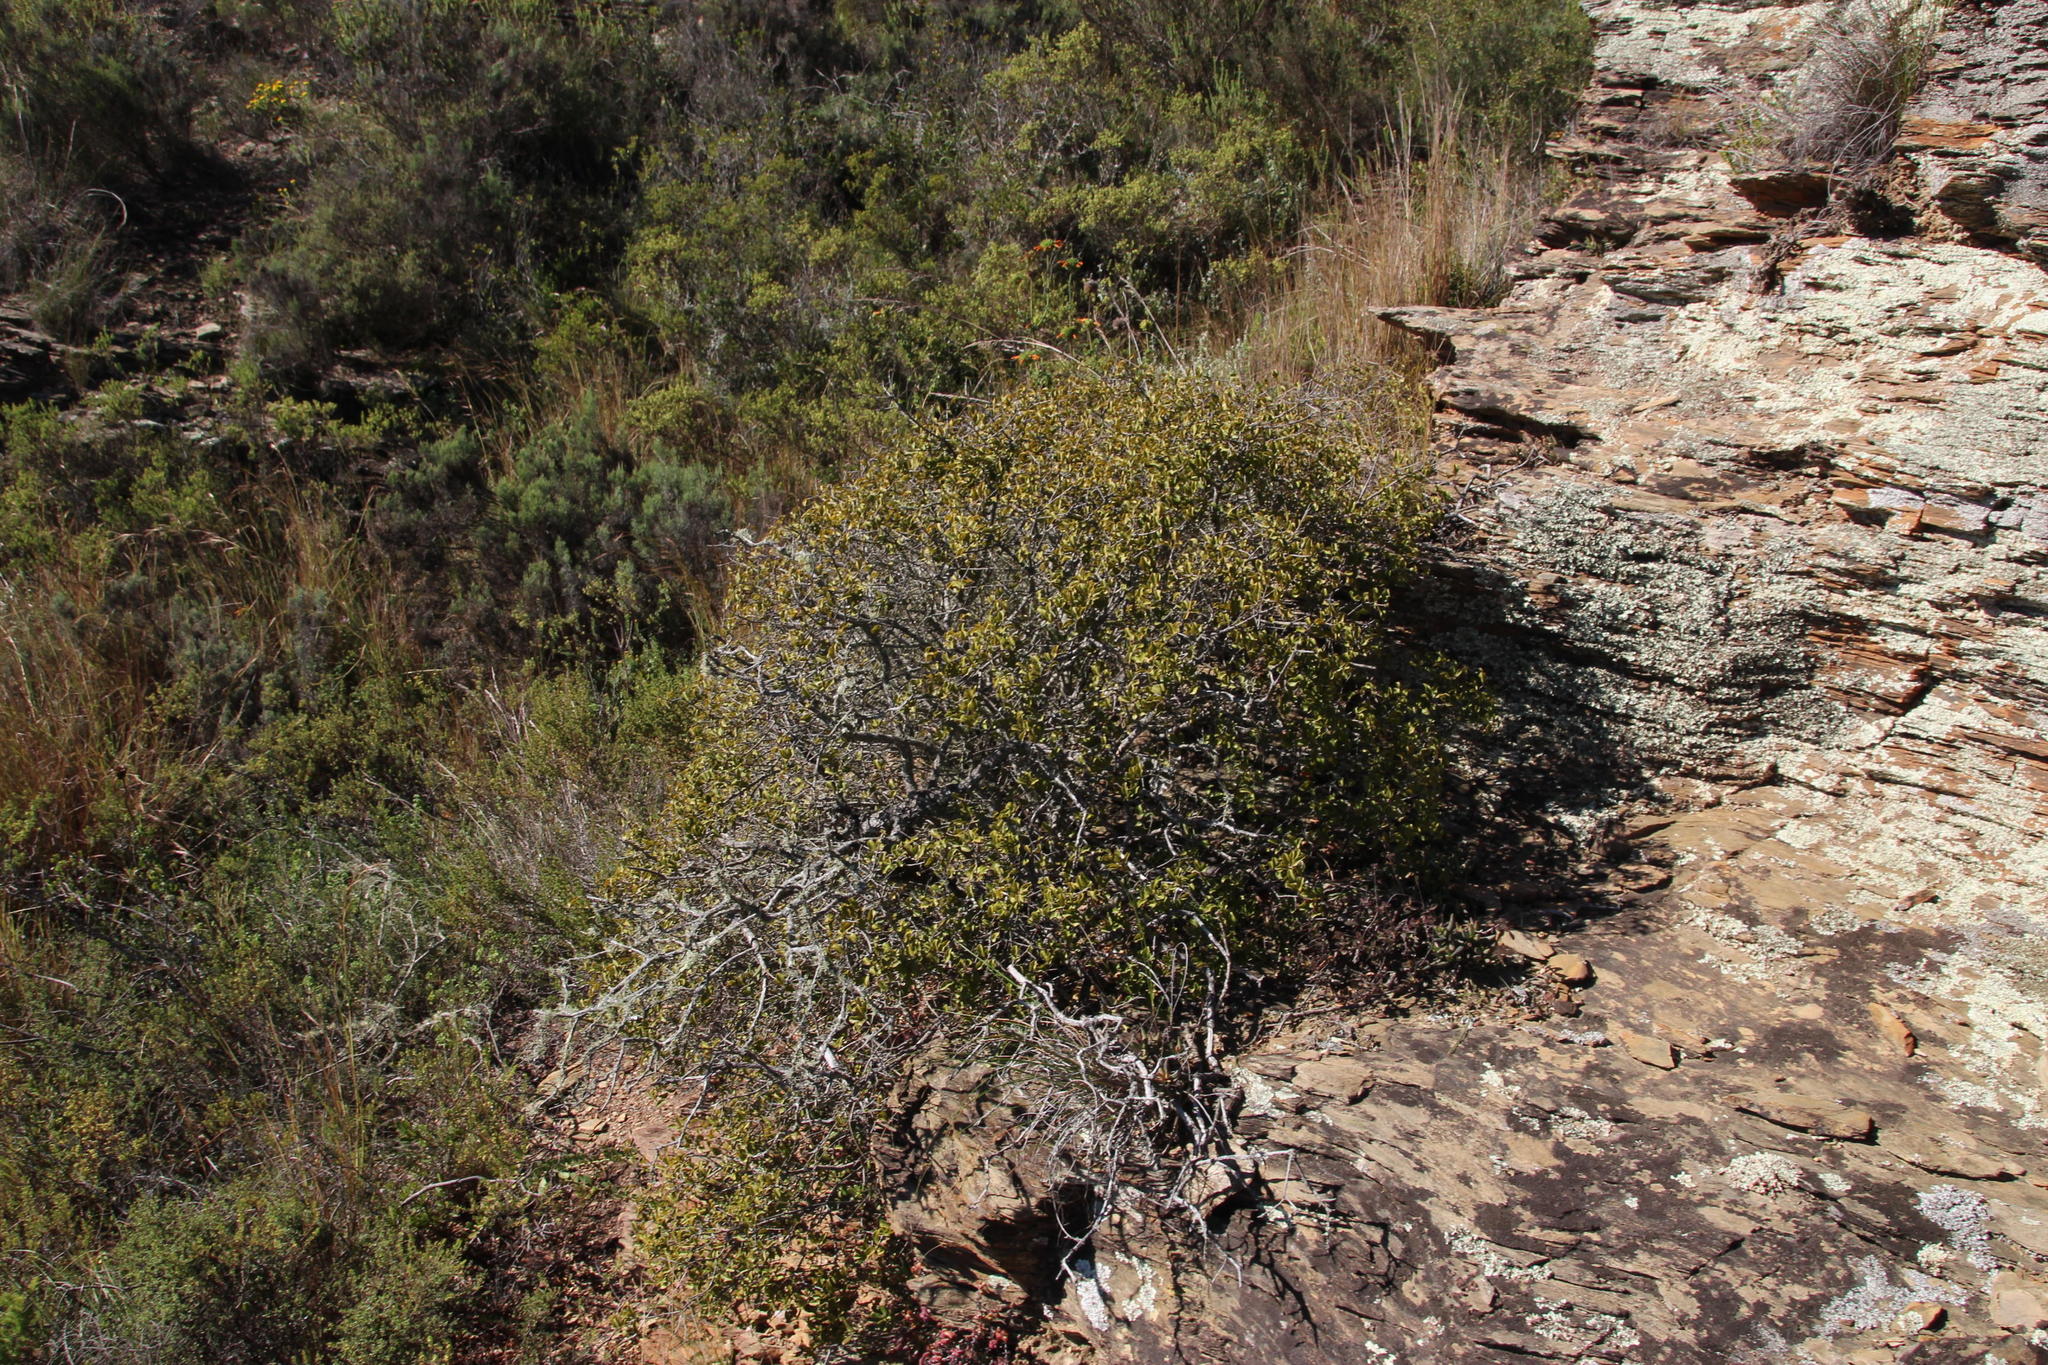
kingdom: Plantae
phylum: Tracheophyta
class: Magnoliopsida
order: Ericales
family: Ebenaceae
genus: Euclea
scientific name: Euclea undulata
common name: Small-leaved guarri
